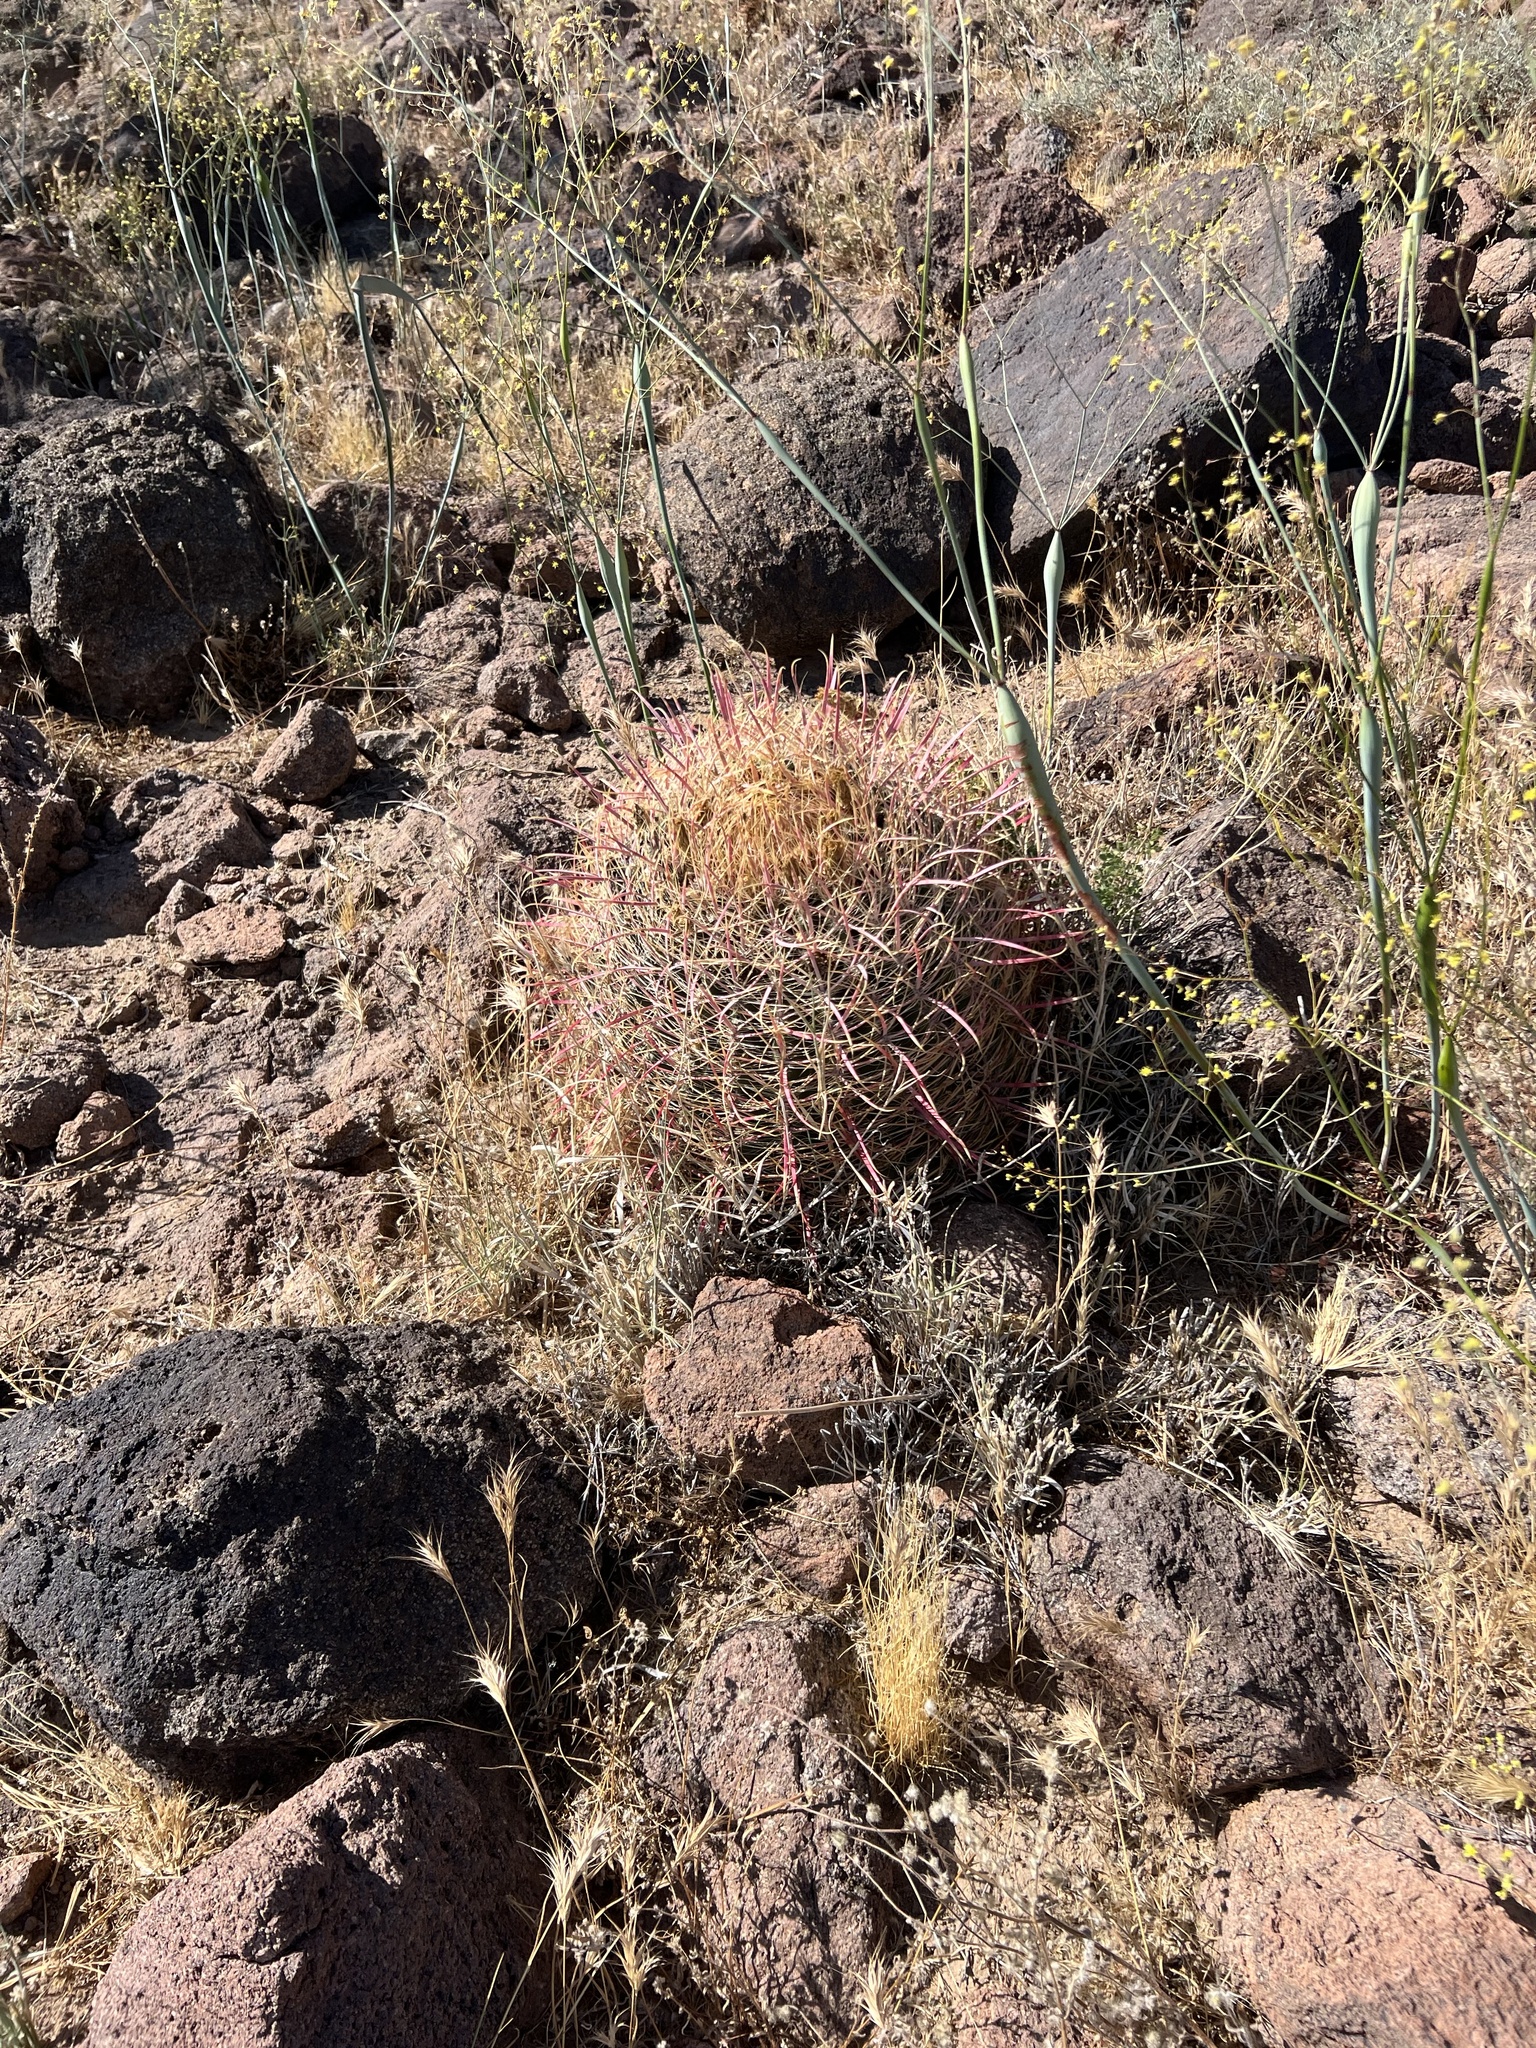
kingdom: Plantae
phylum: Tracheophyta
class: Magnoliopsida
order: Caryophyllales
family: Cactaceae
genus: Ferocactus
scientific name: Ferocactus cylindraceus
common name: California barrel cactus
